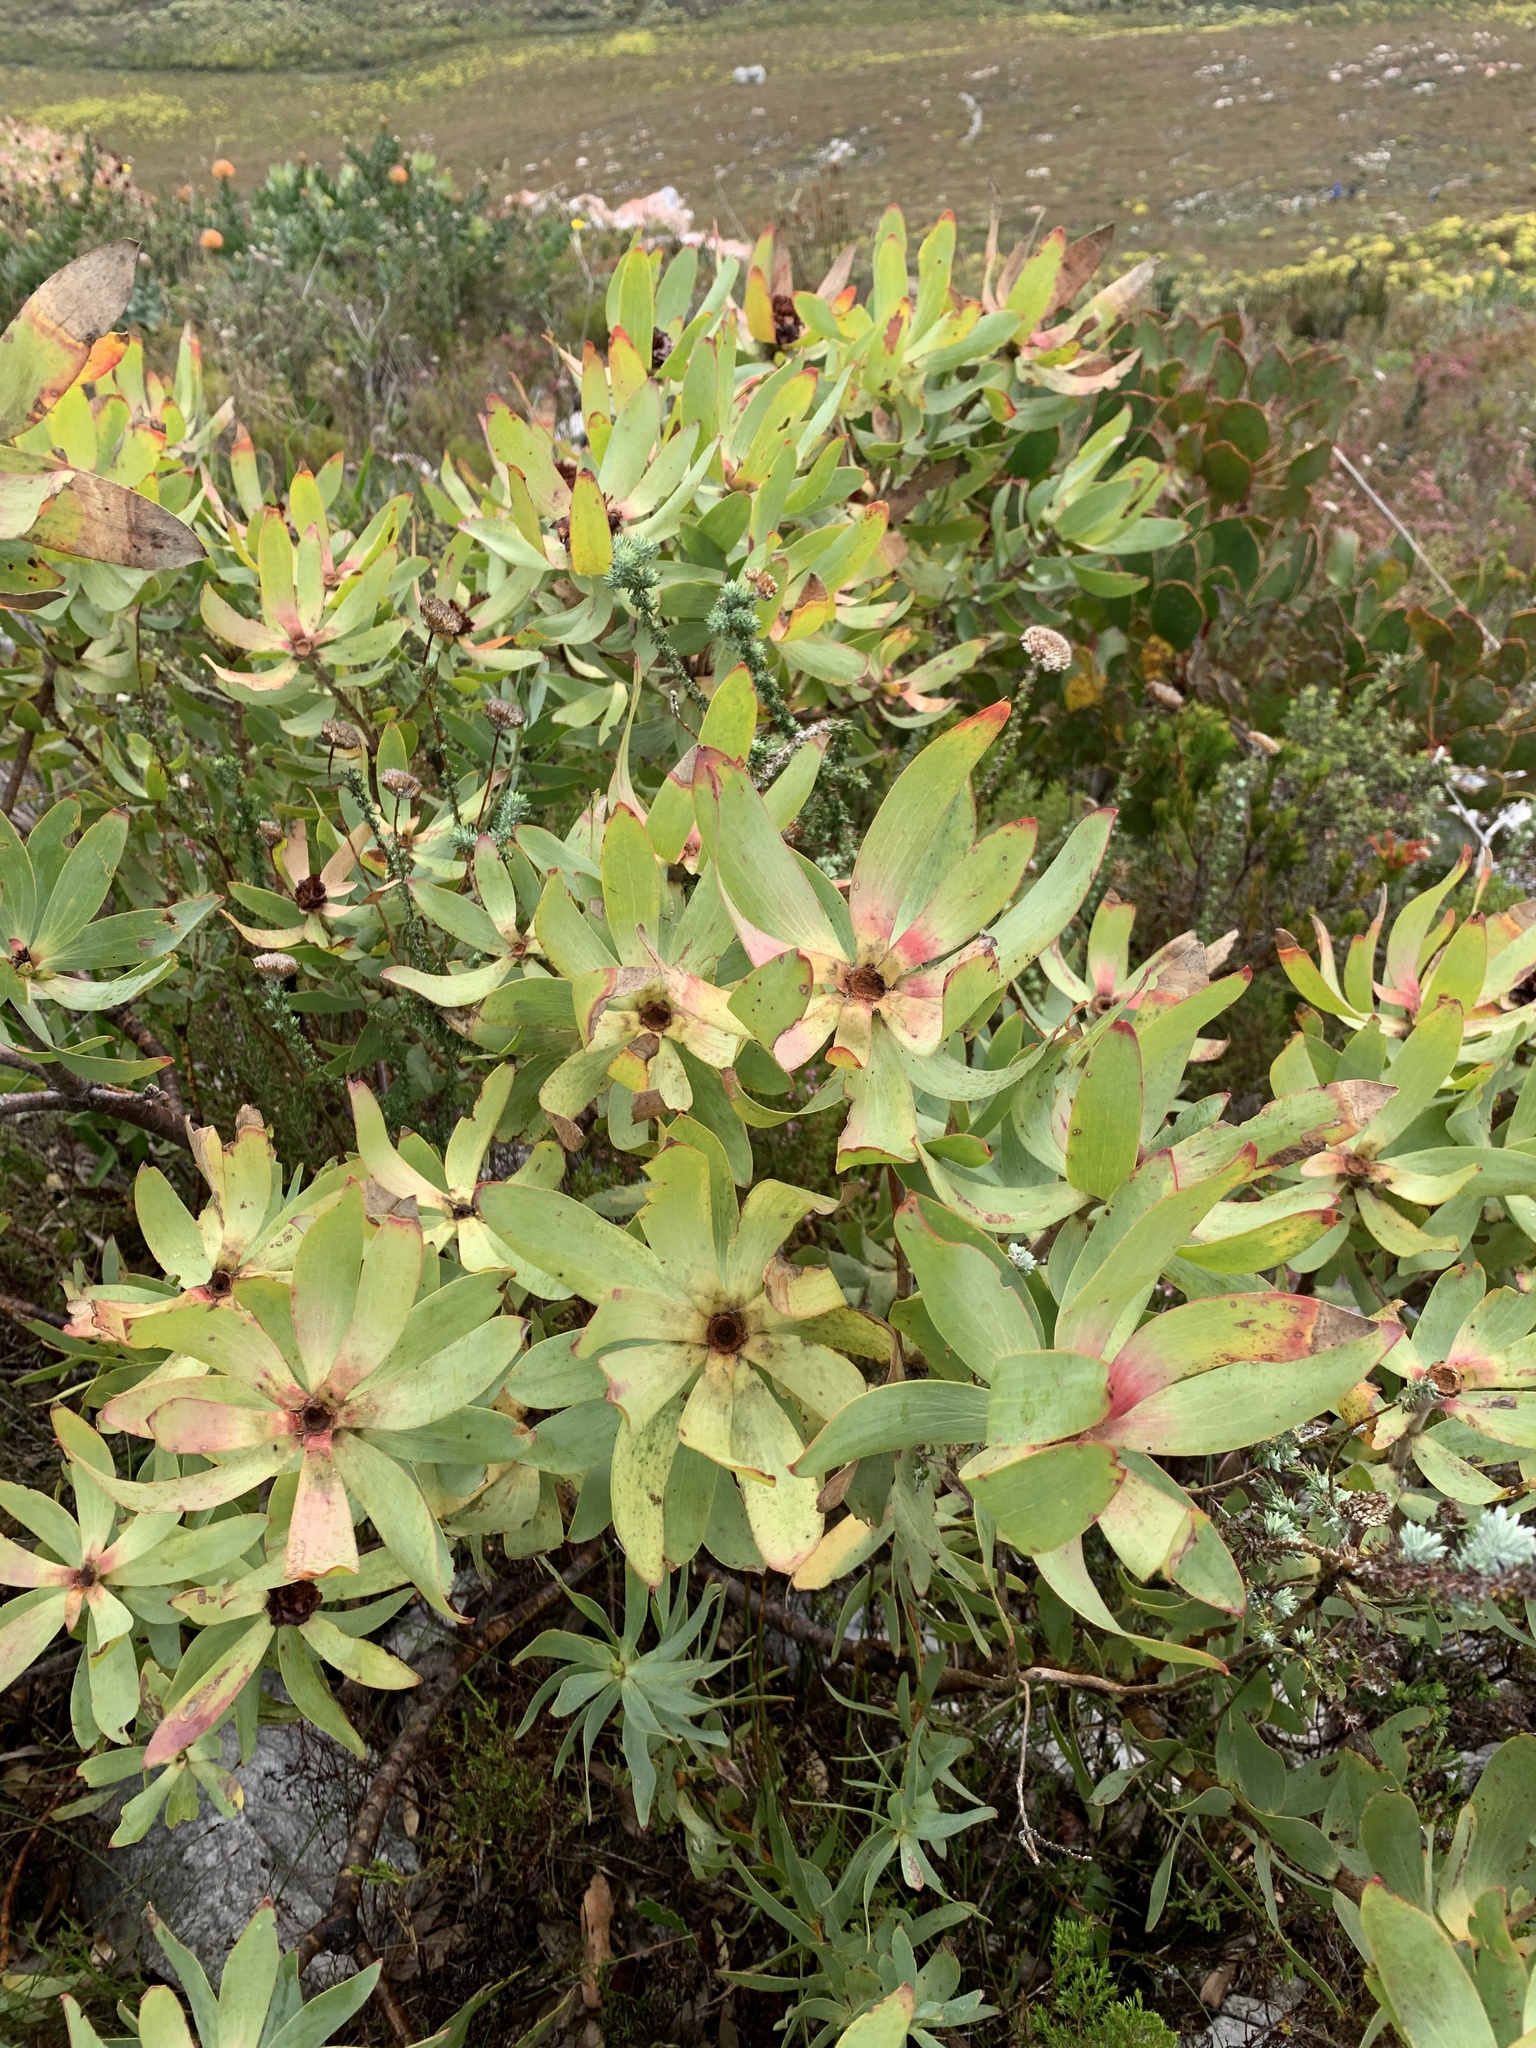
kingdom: Plantae
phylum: Tracheophyta
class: Magnoliopsida
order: Proteales
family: Proteaceae
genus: Leucadendron
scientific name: Leucadendron tinctum
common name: Spicy conebush
